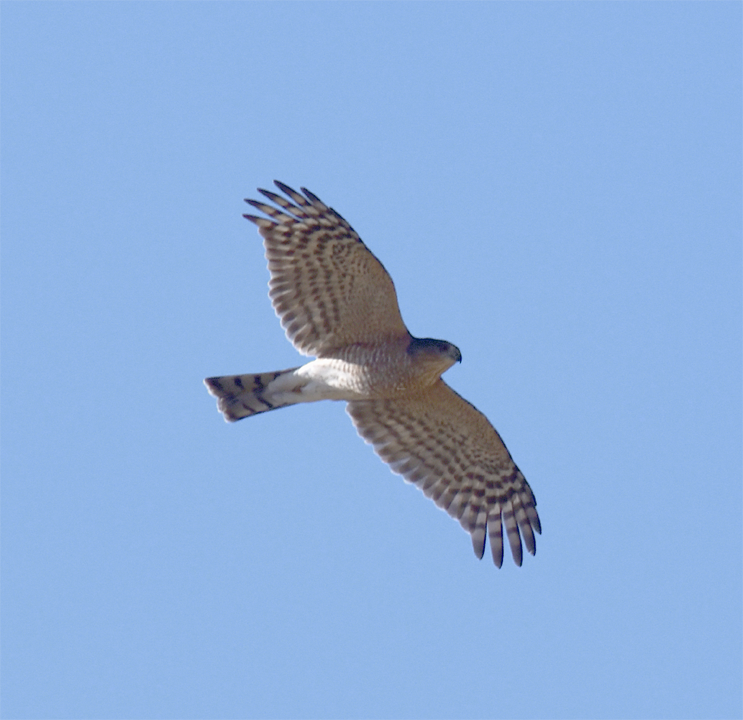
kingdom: Animalia
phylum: Chordata
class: Aves
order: Accipitriformes
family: Accipitridae
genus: Accipiter
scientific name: Accipiter striatus
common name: Sharp-shinned hawk
